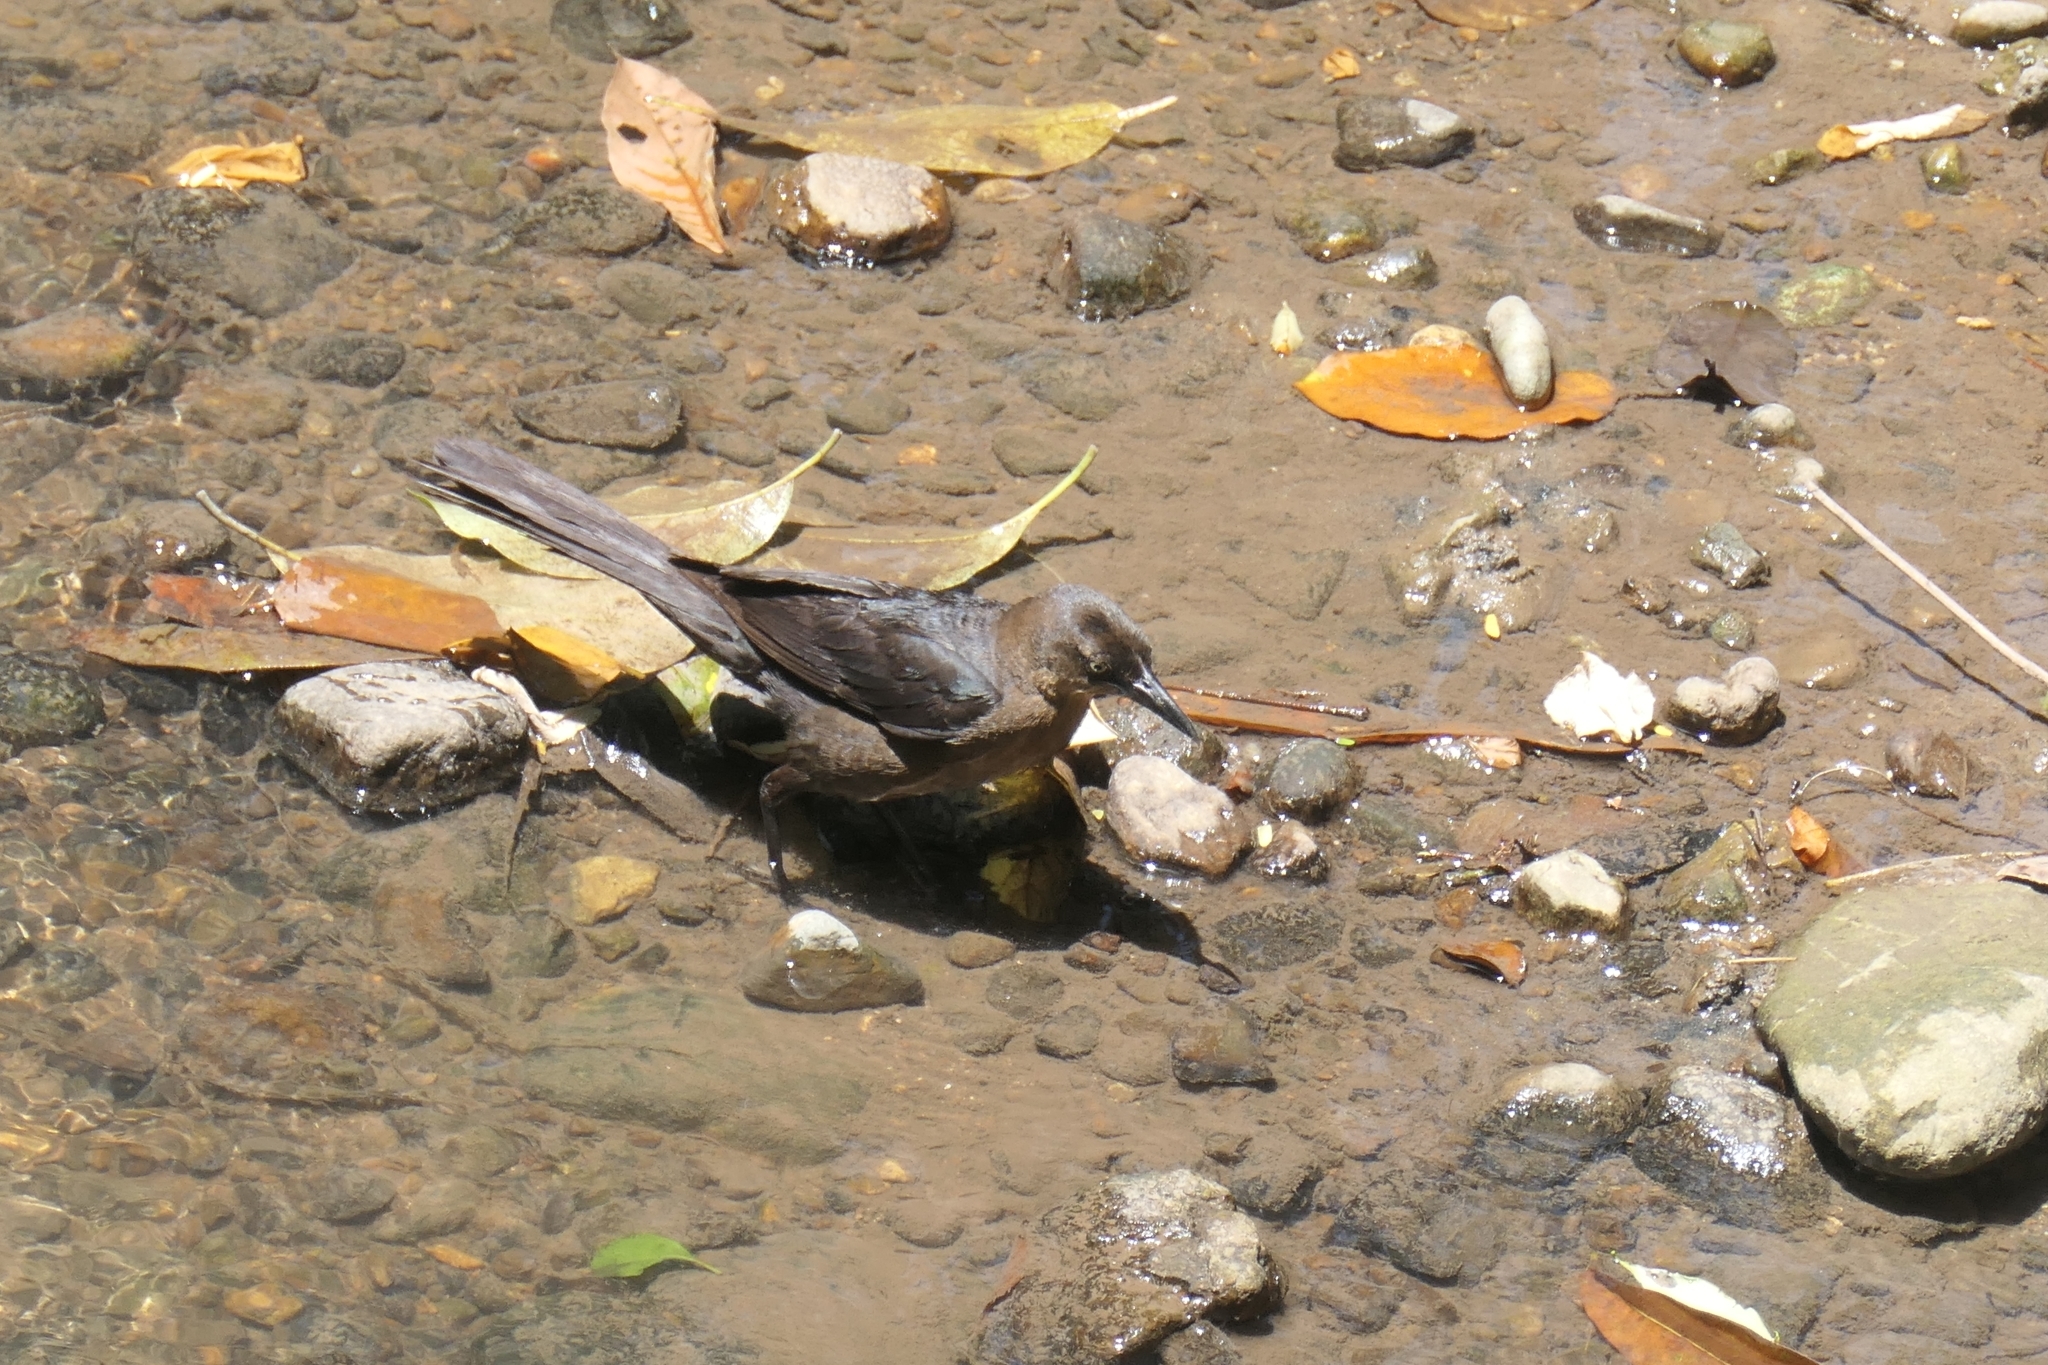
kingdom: Animalia
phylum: Chordata
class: Aves
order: Passeriformes
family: Icteridae
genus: Quiscalus
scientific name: Quiscalus mexicanus
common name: Great-tailed grackle
